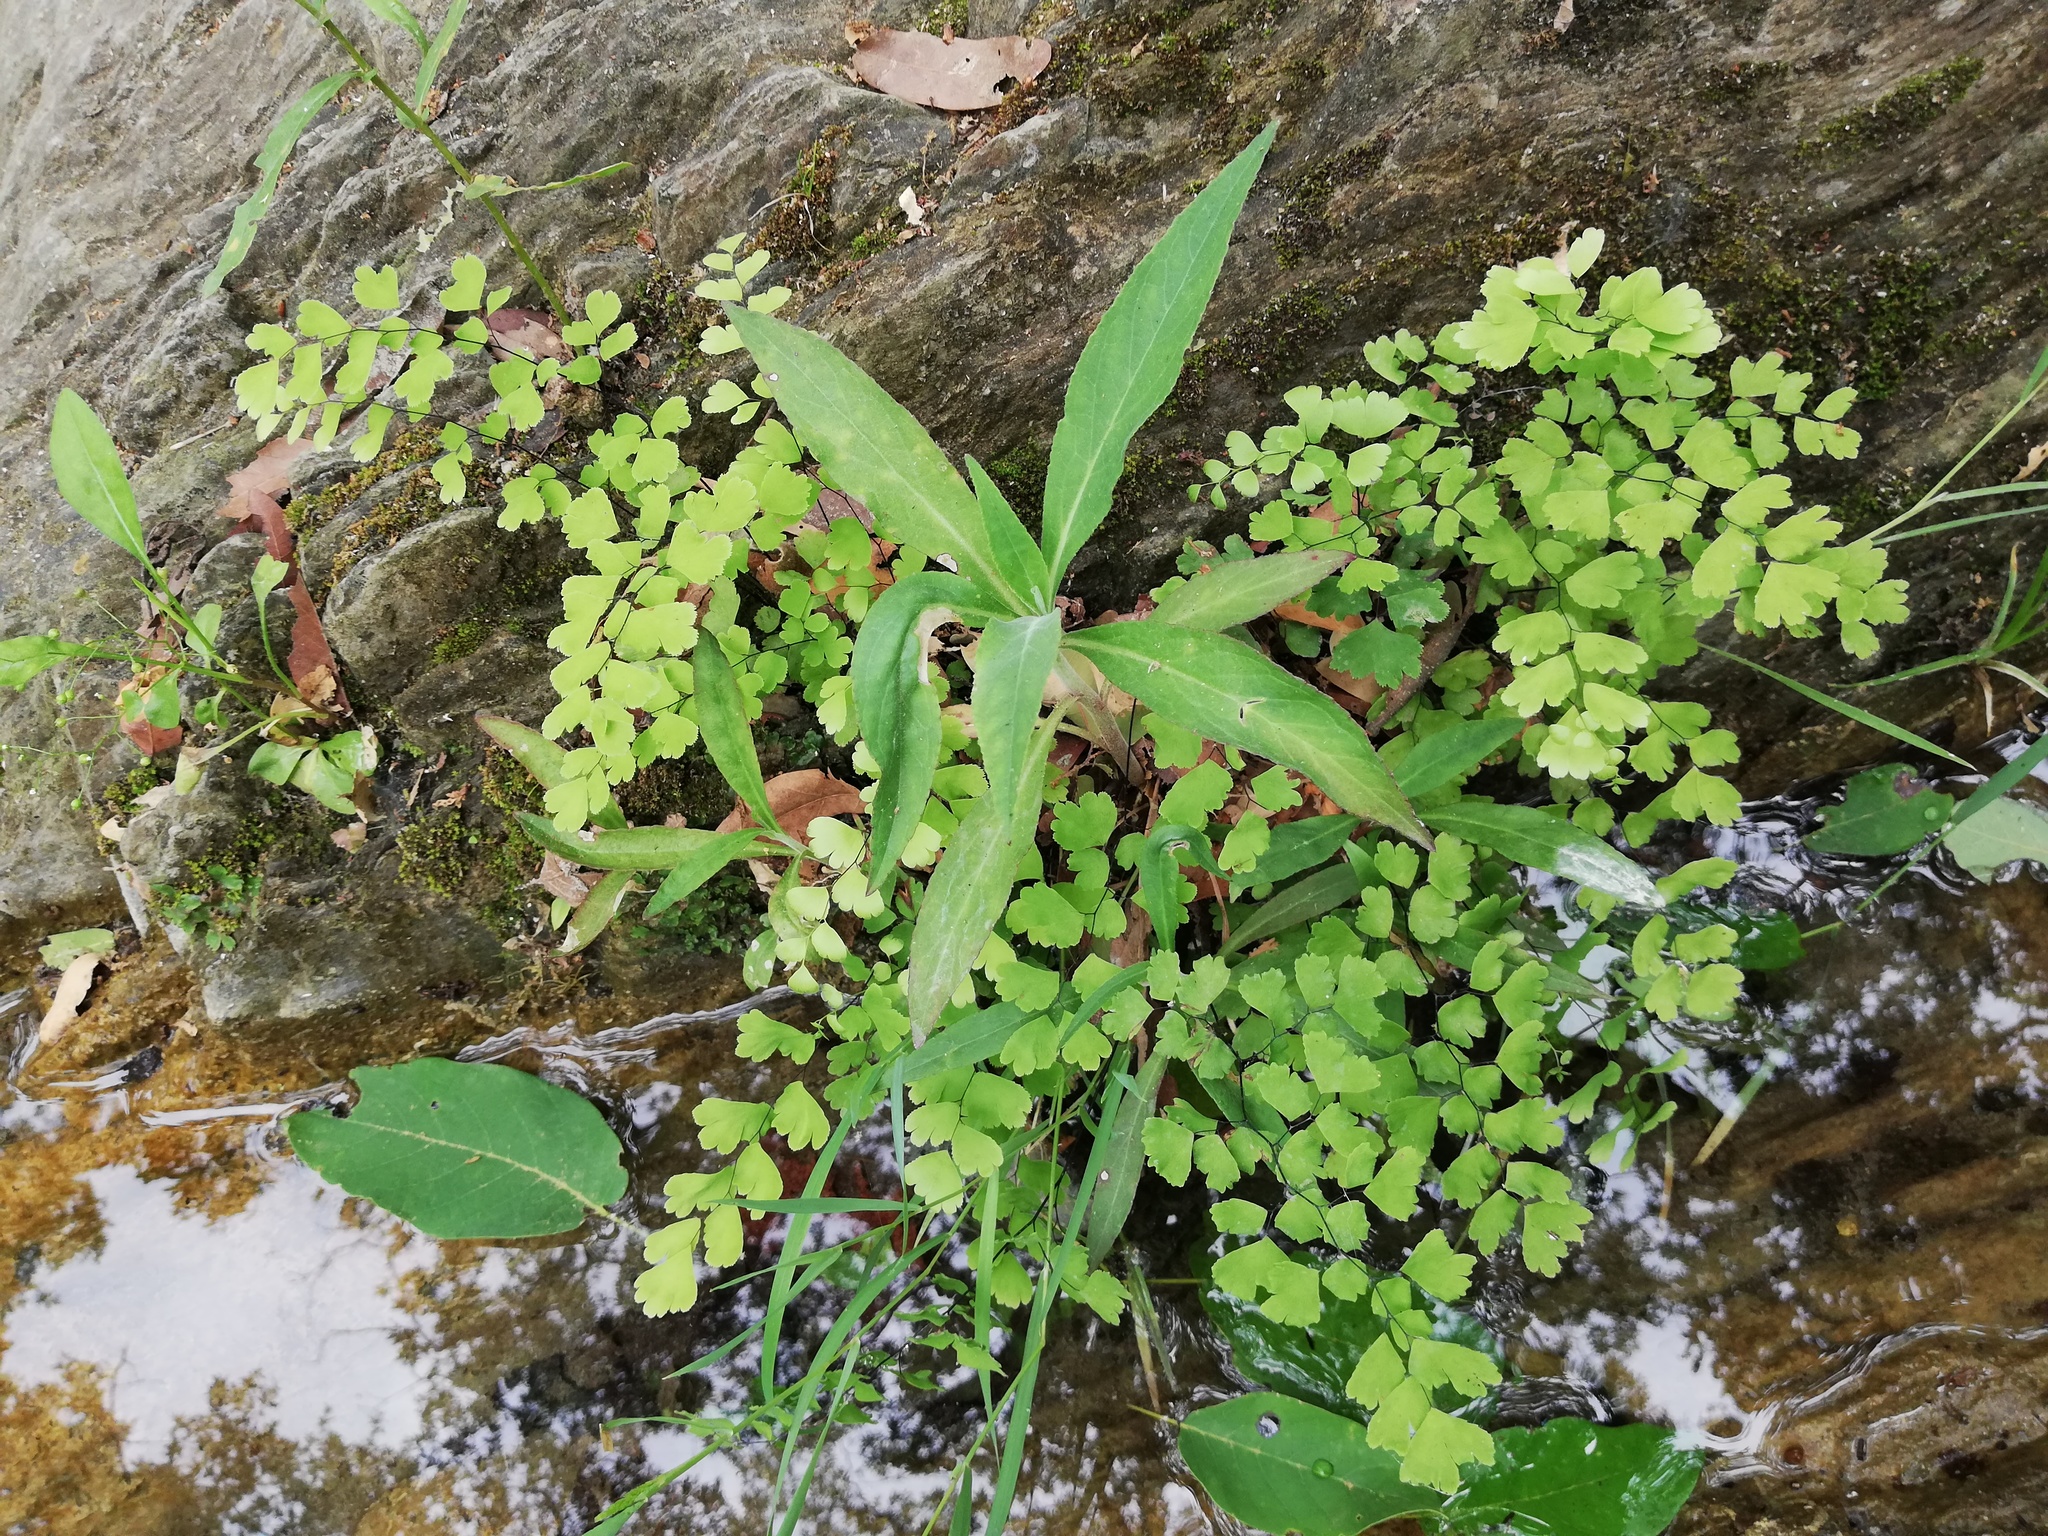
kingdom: Plantae
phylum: Tracheophyta
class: Polypodiopsida
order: Polypodiales
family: Pteridaceae
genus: Adiantum
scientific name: Adiantum capillus-veneris
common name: Maidenhair fern
